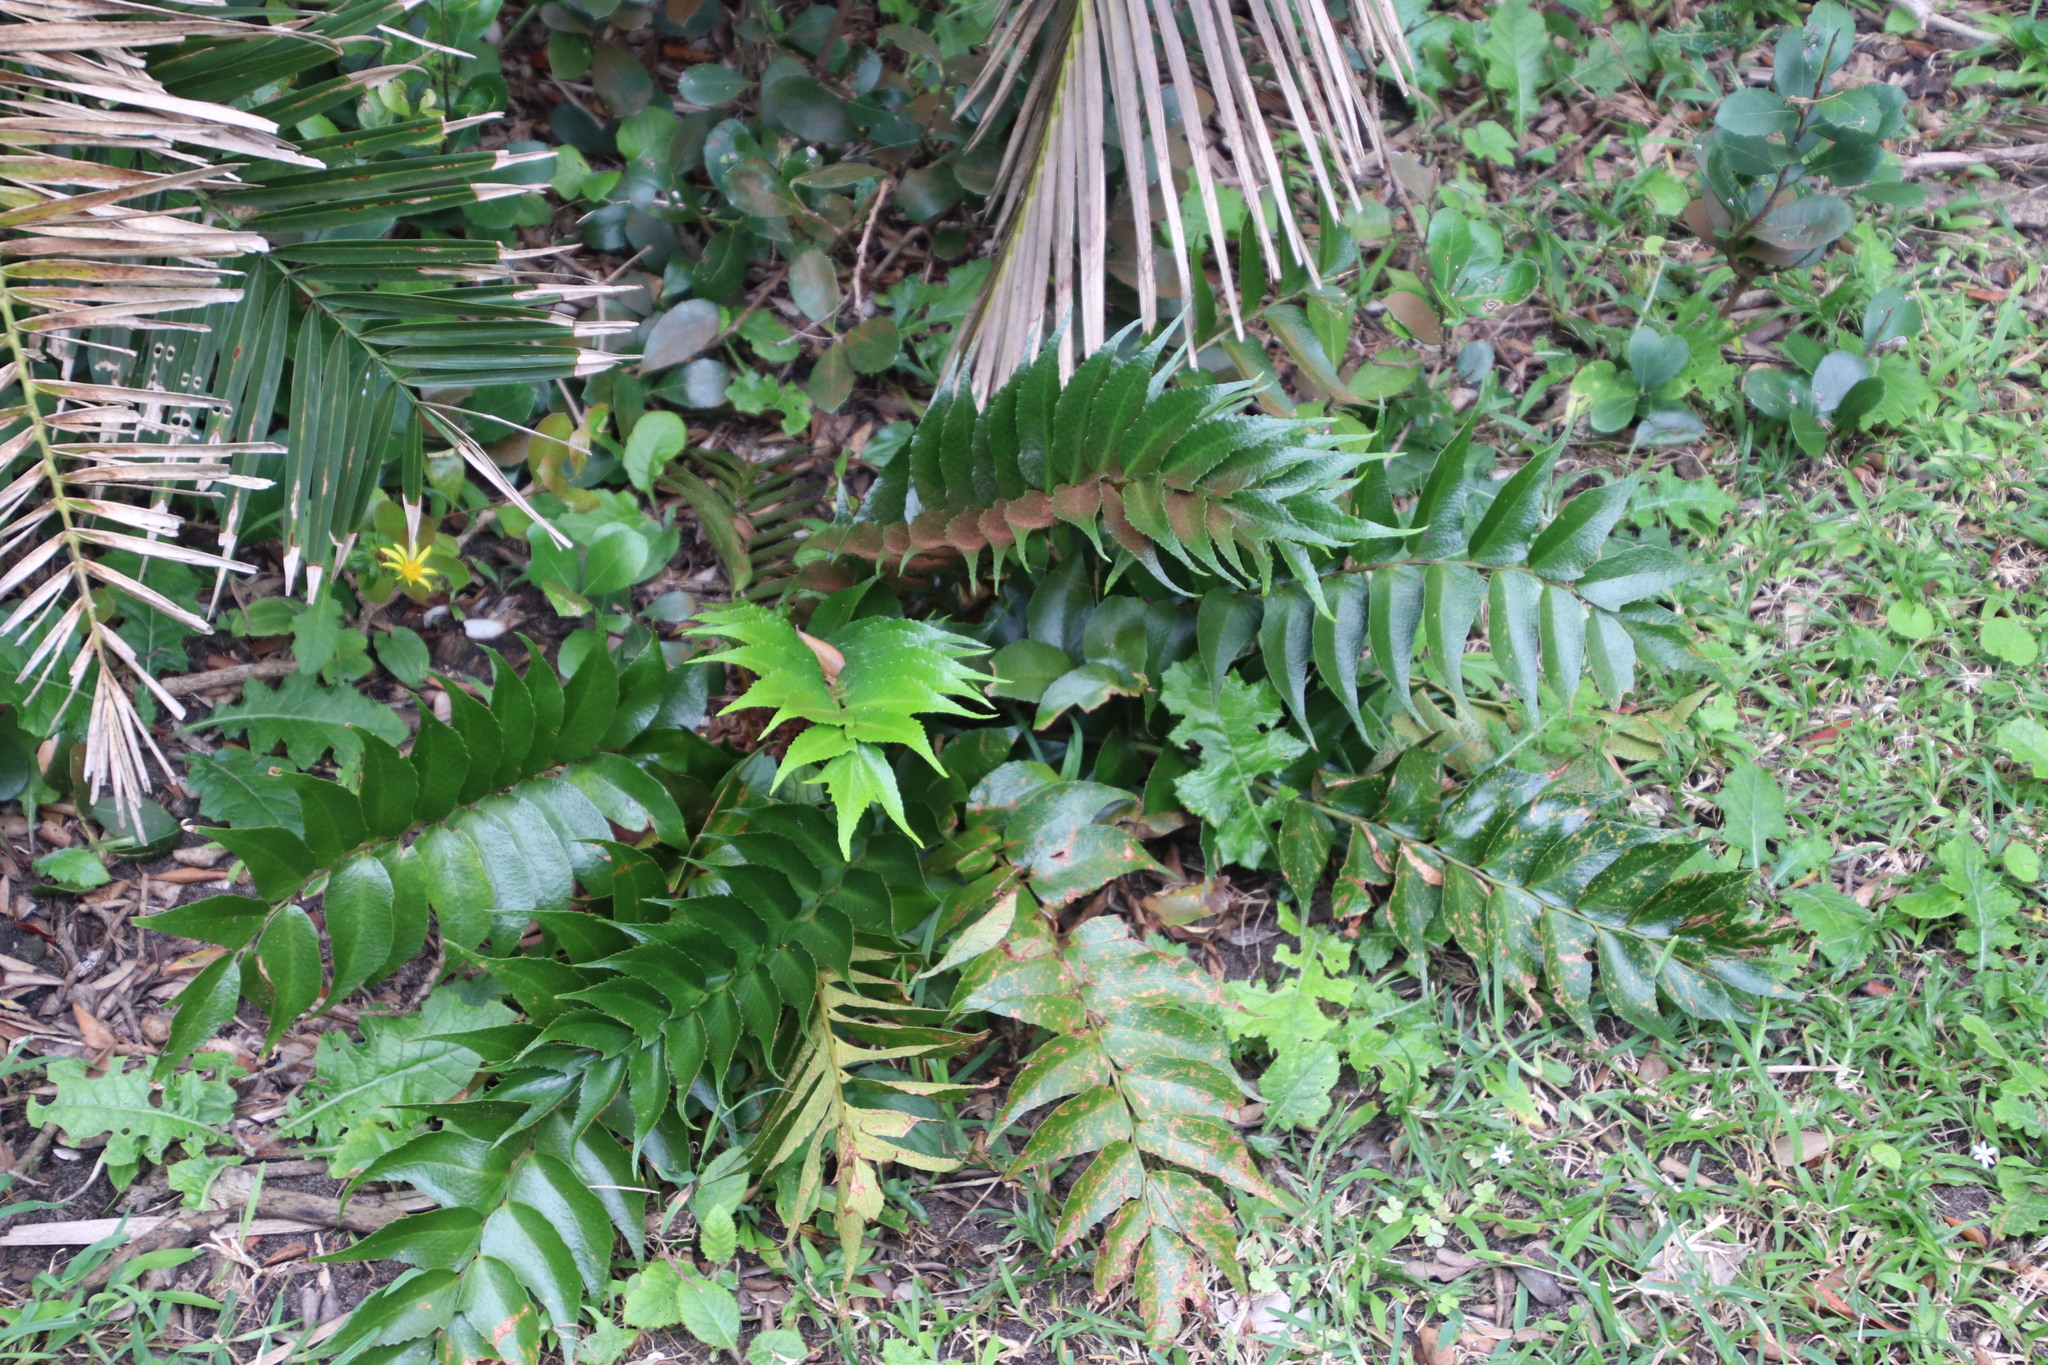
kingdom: Plantae
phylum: Tracheophyta
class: Polypodiopsida
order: Polypodiales
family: Dryopteridaceae
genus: Cyrtomium
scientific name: Cyrtomium falcatum
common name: House holly-fern
